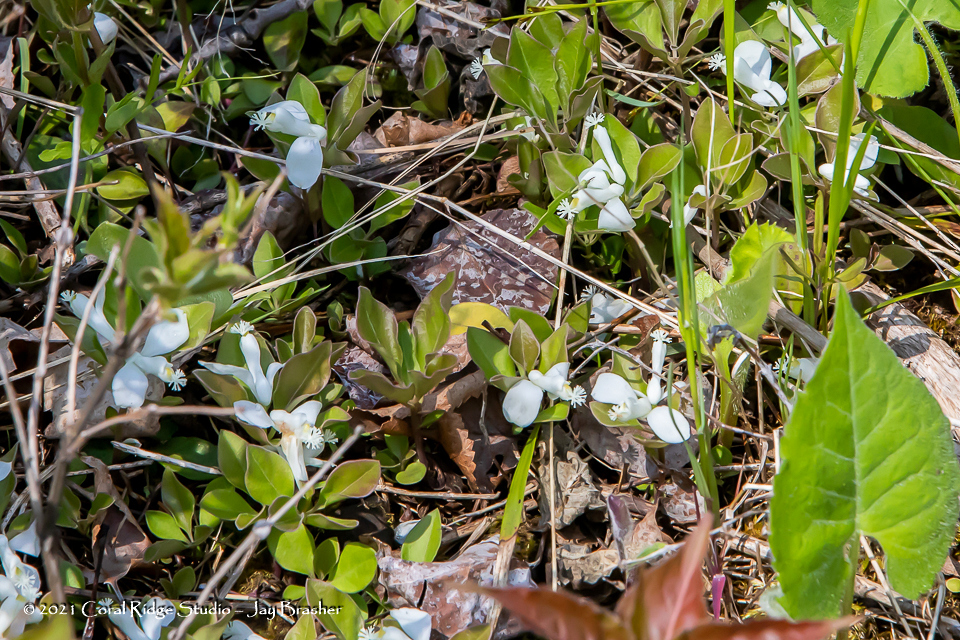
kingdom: Plantae
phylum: Tracheophyta
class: Magnoliopsida
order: Fabales
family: Polygalaceae
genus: Polygaloides
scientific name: Polygaloides paucifolia
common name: Bird-on-the-wing
